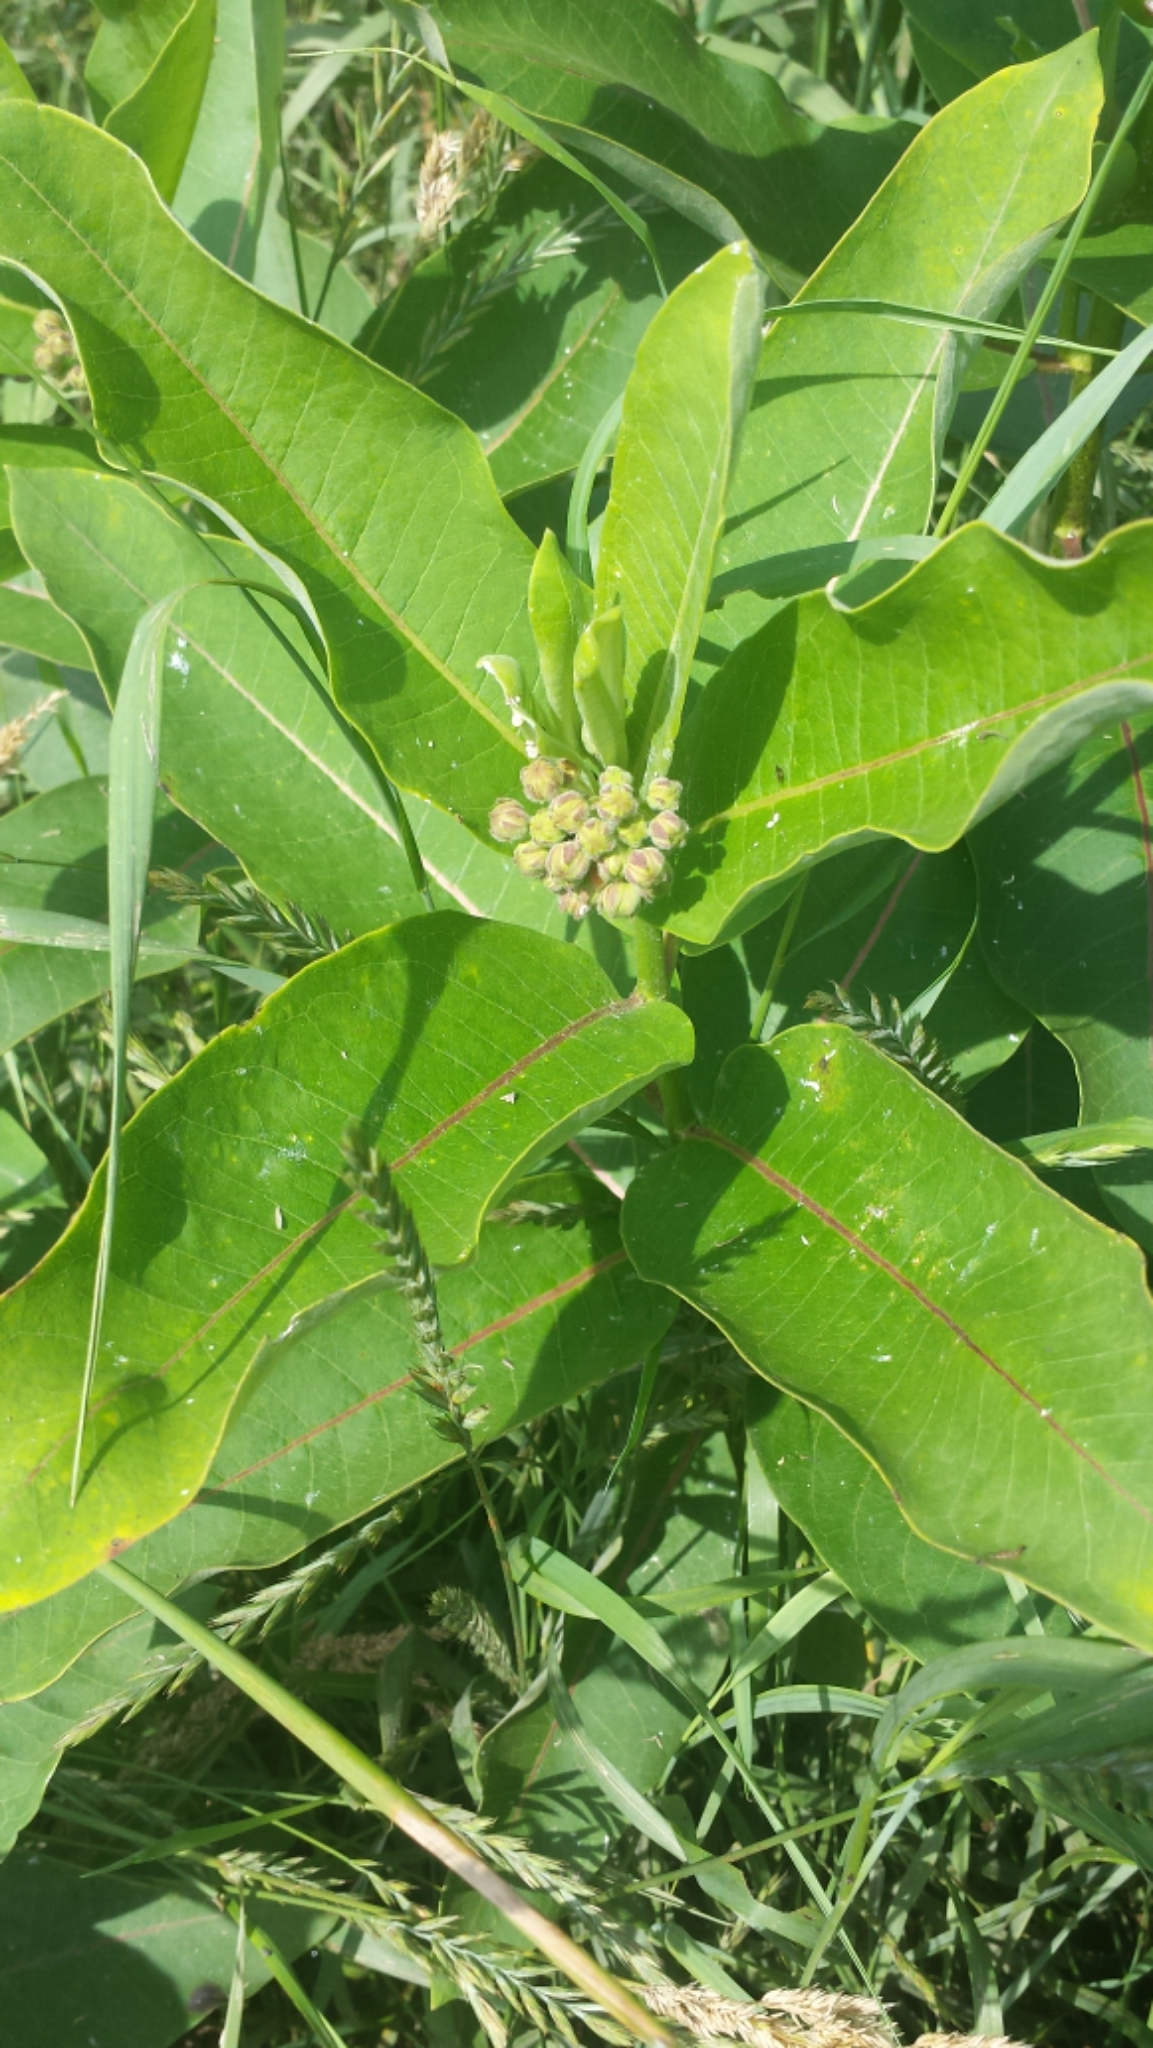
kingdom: Plantae
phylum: Tracheophyta
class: Magnoliopsida
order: Gentianales
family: Apocynaceae
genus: Asclepias
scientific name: Asclepias syriaca
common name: Common milkweed
